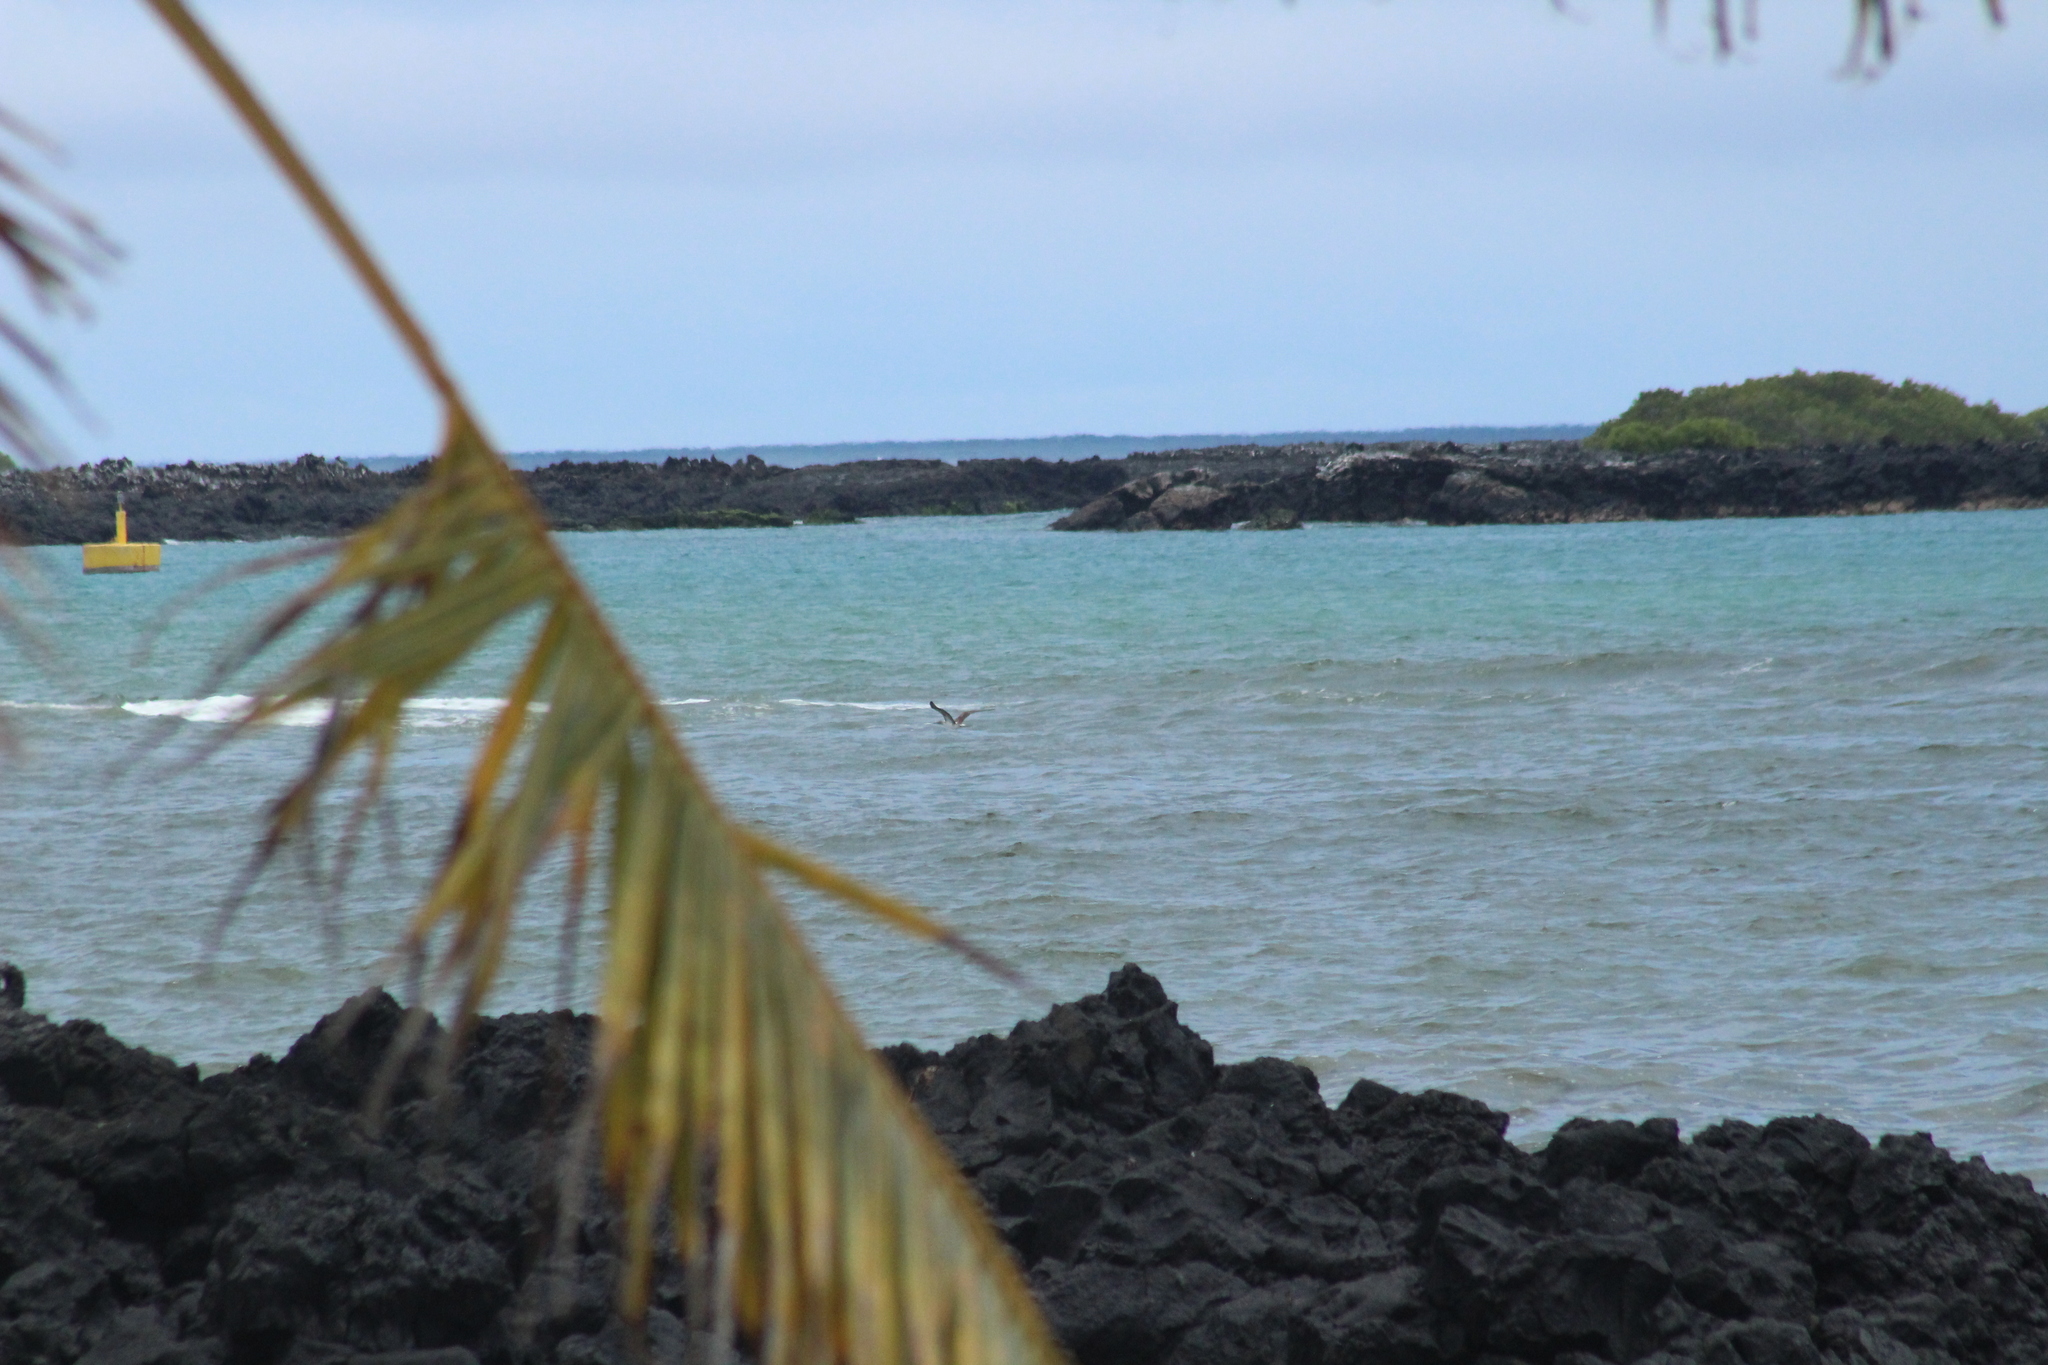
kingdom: Animalia
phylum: Chordata
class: Aves
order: Suliformes
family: Sulidae
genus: Sula
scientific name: Sula nebouxii
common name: Blue-footed booby
